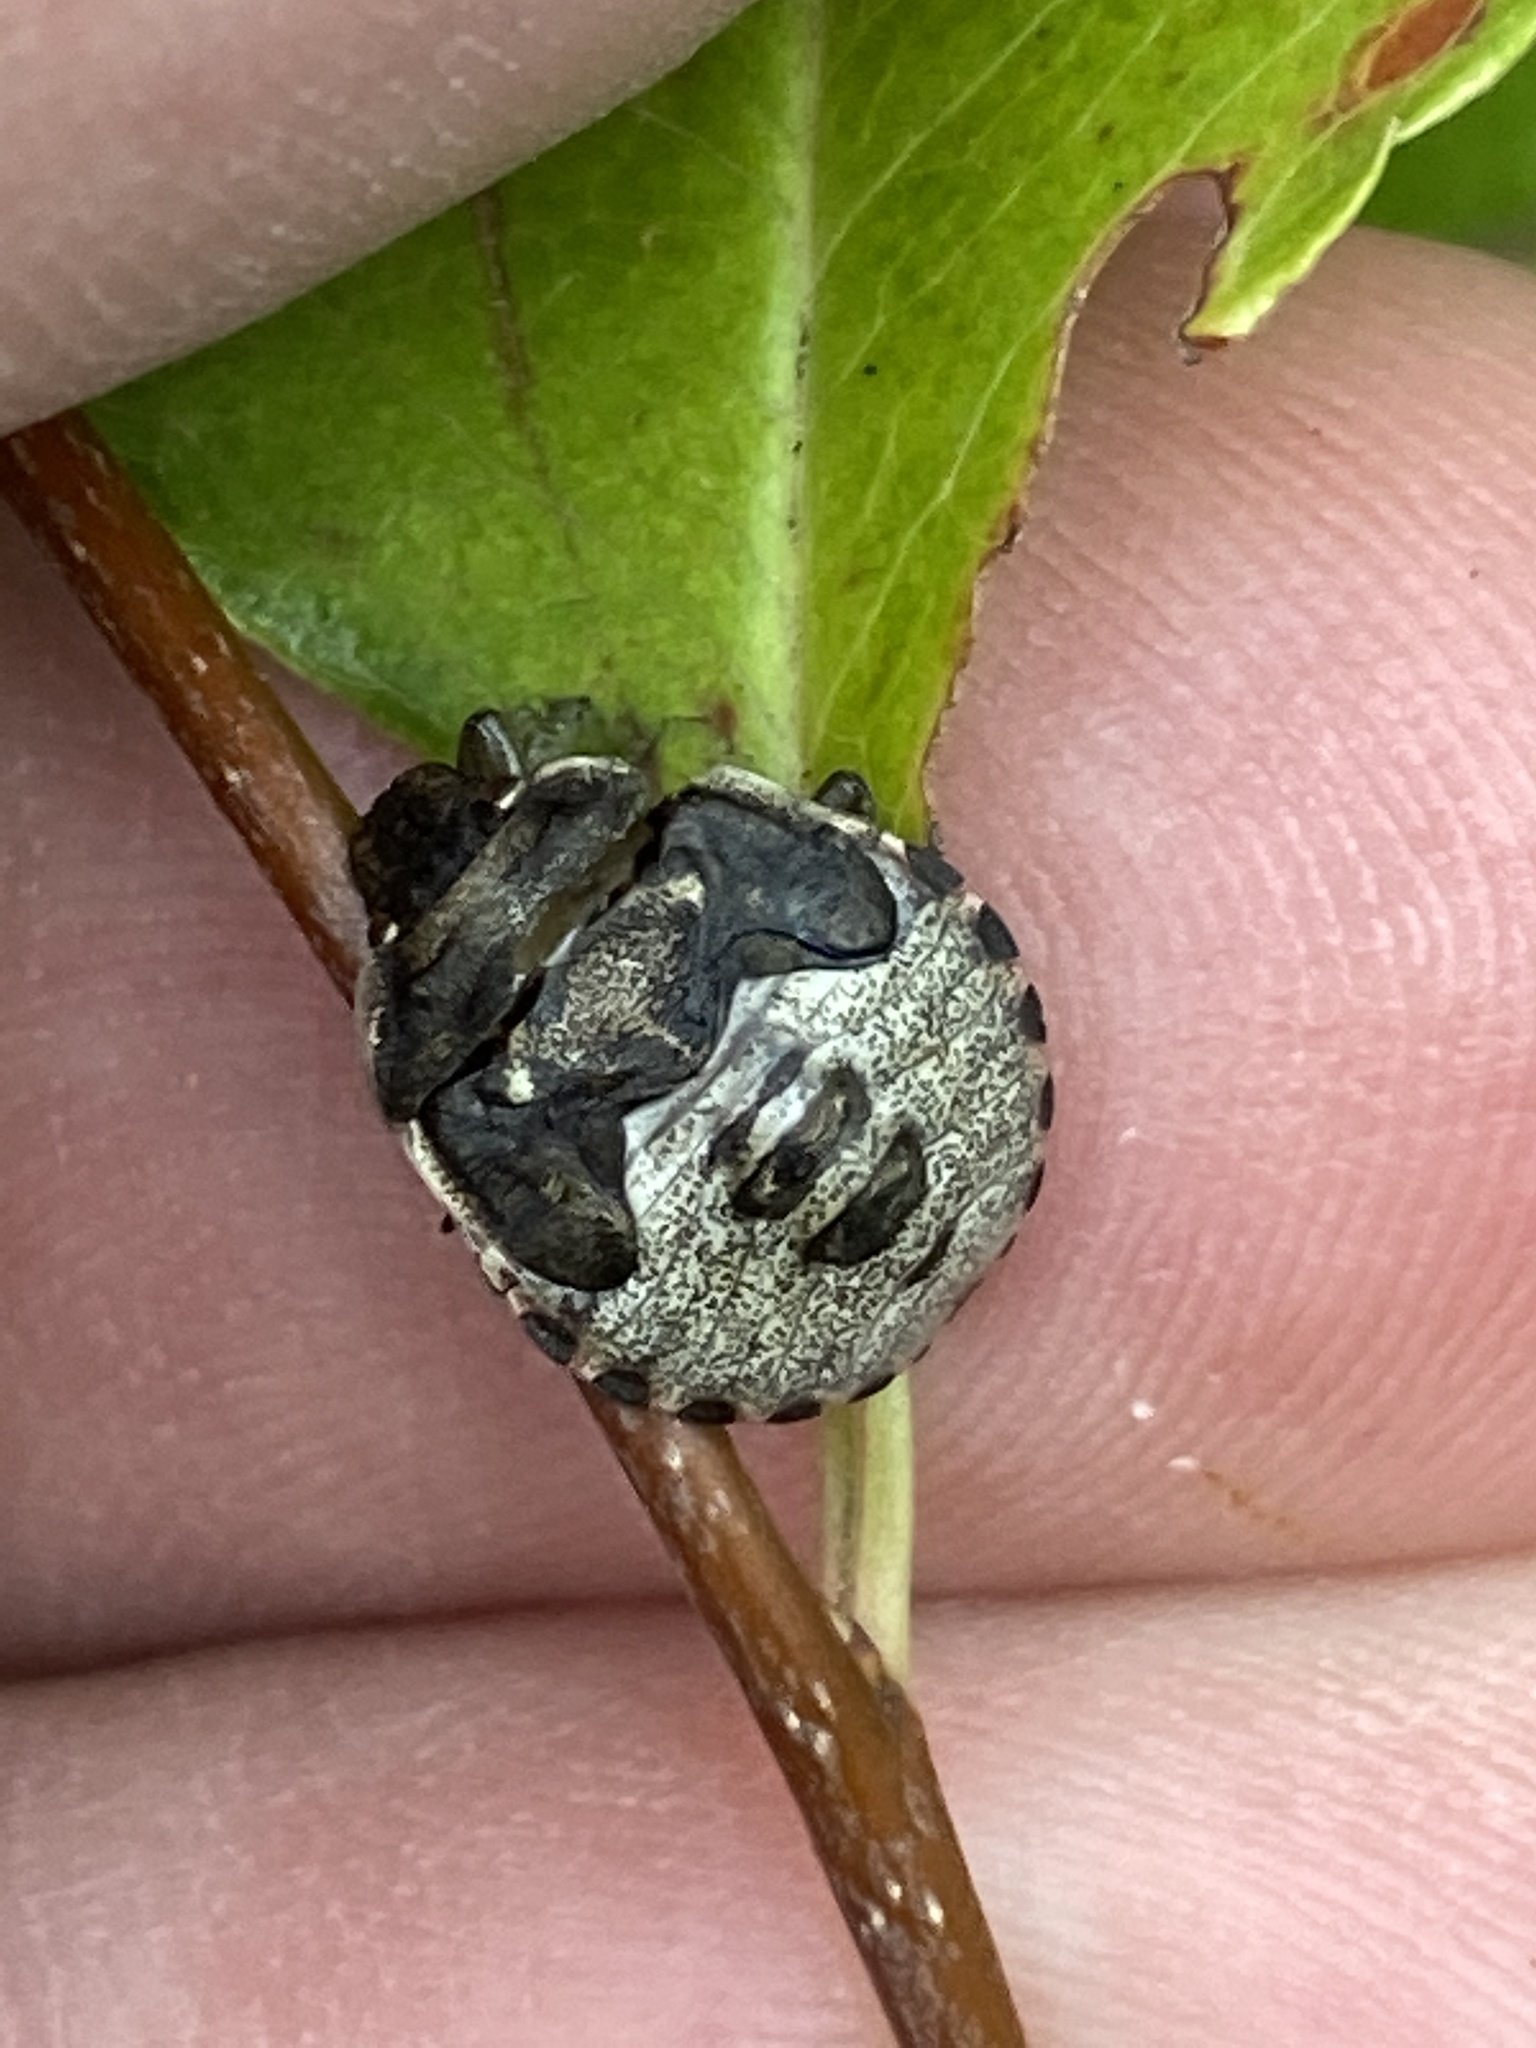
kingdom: Animalia
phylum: Arthropoda
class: Insecta
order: Hemiptera
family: Pentatomidae
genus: Eysarcoris
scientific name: Eysarcoris venustissimus
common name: Woundwort shieldbug
